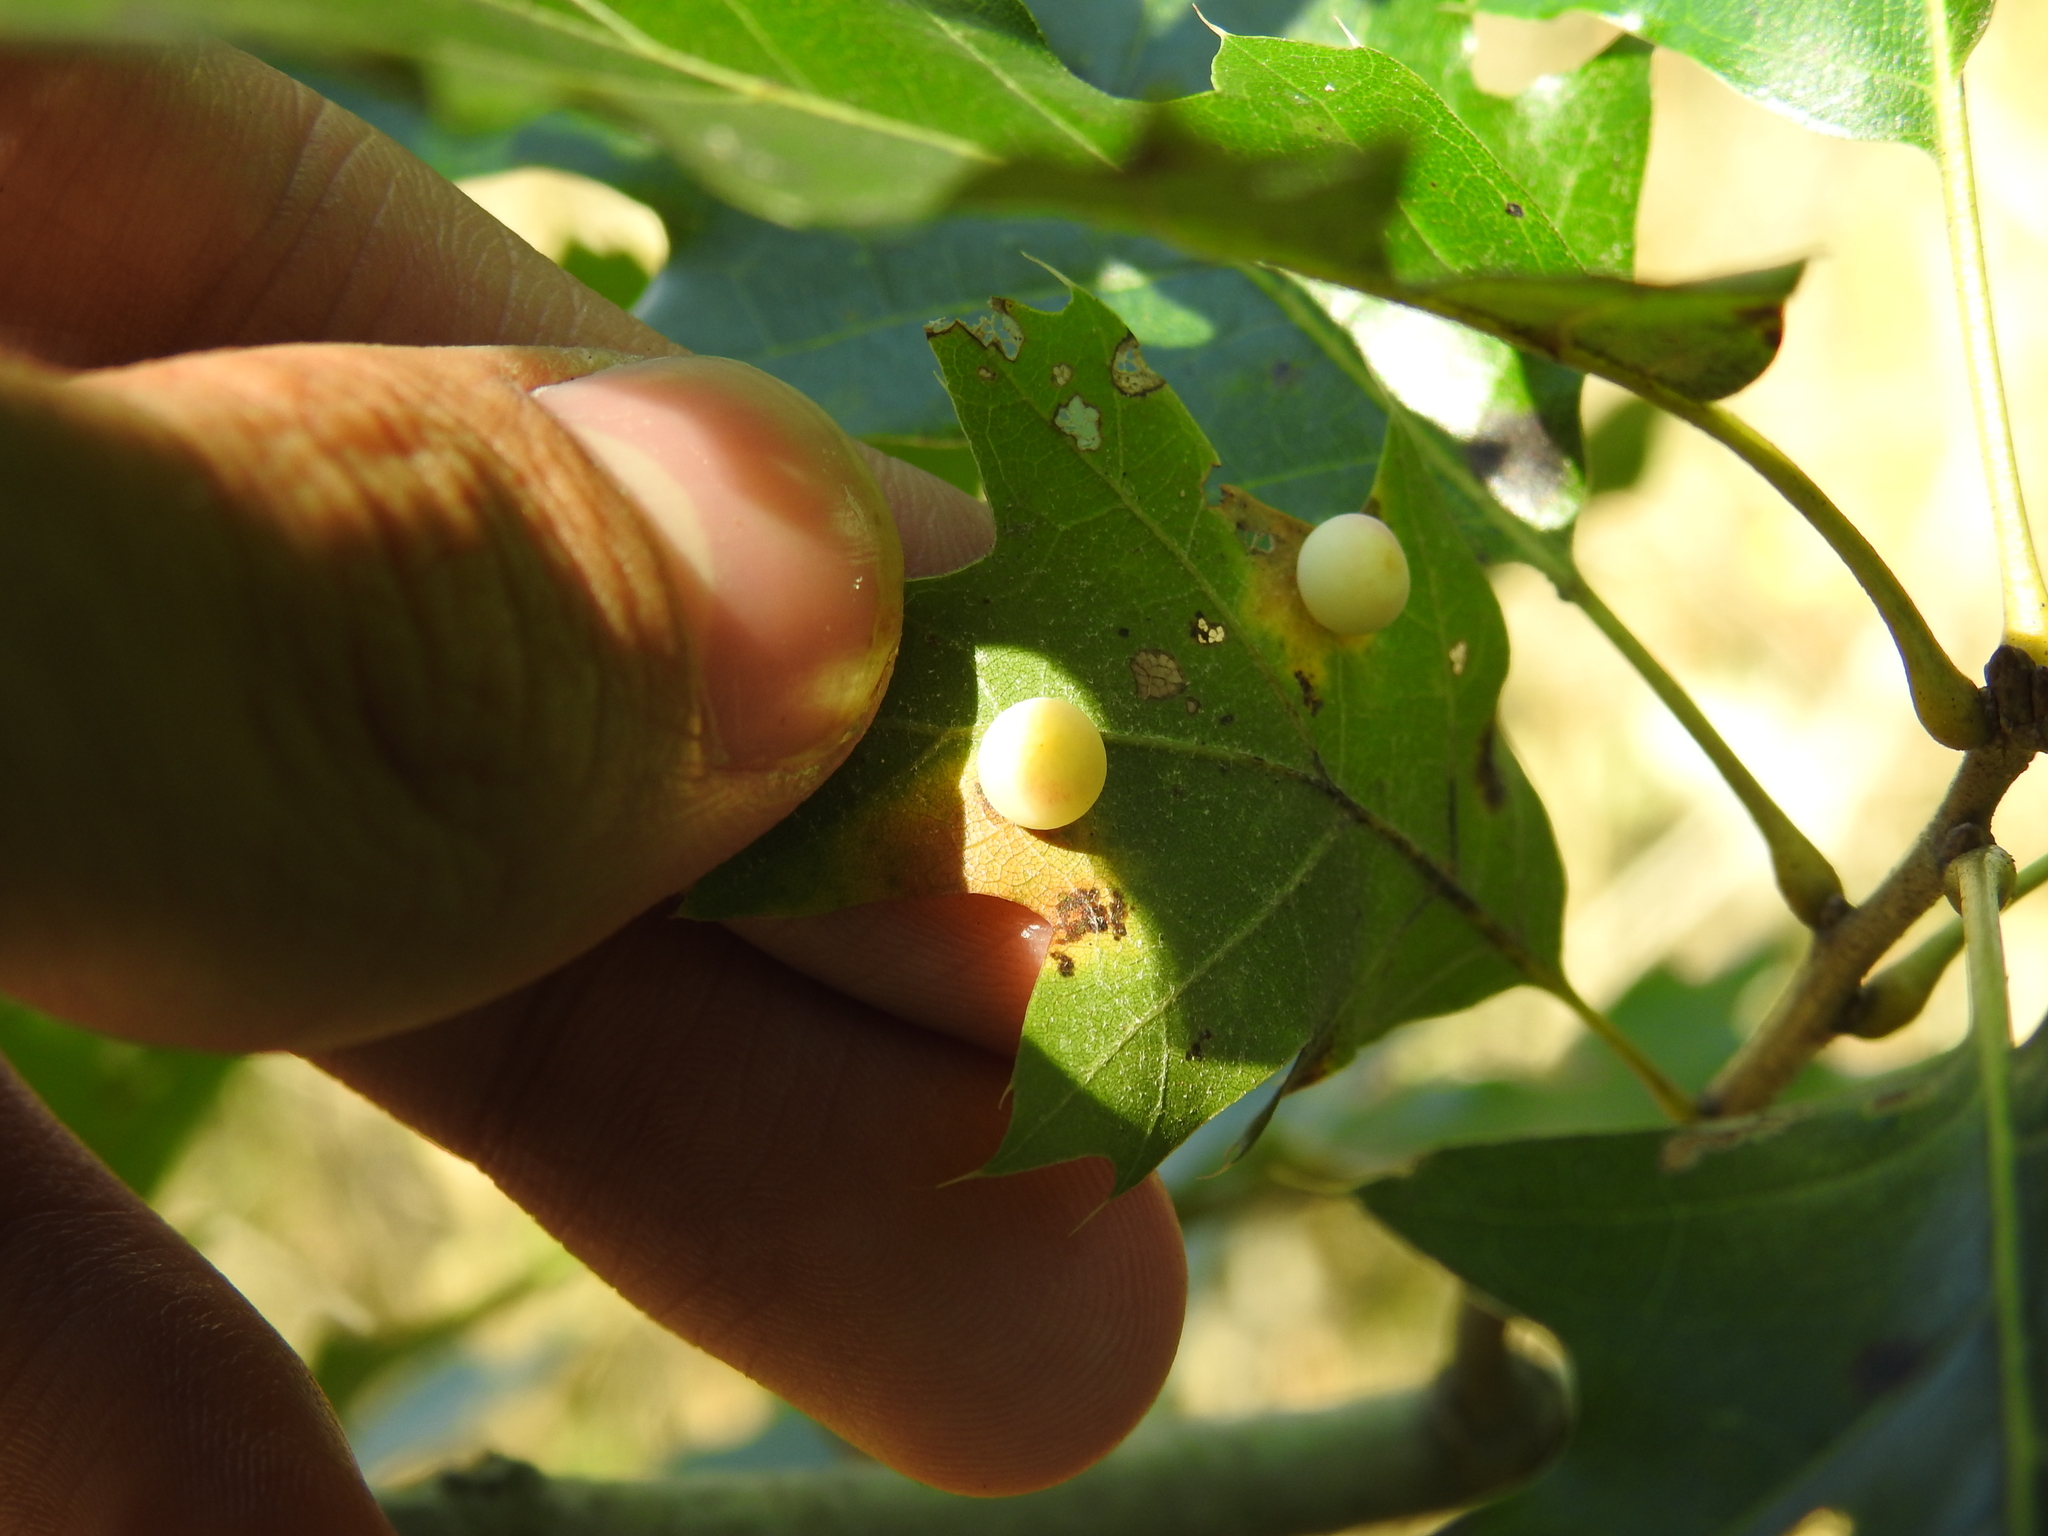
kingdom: Animalia
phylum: Arthropoda
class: Insecta
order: Hymenoptera
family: Cynipidae
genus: Zopheroteras
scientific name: Zopheroteras
